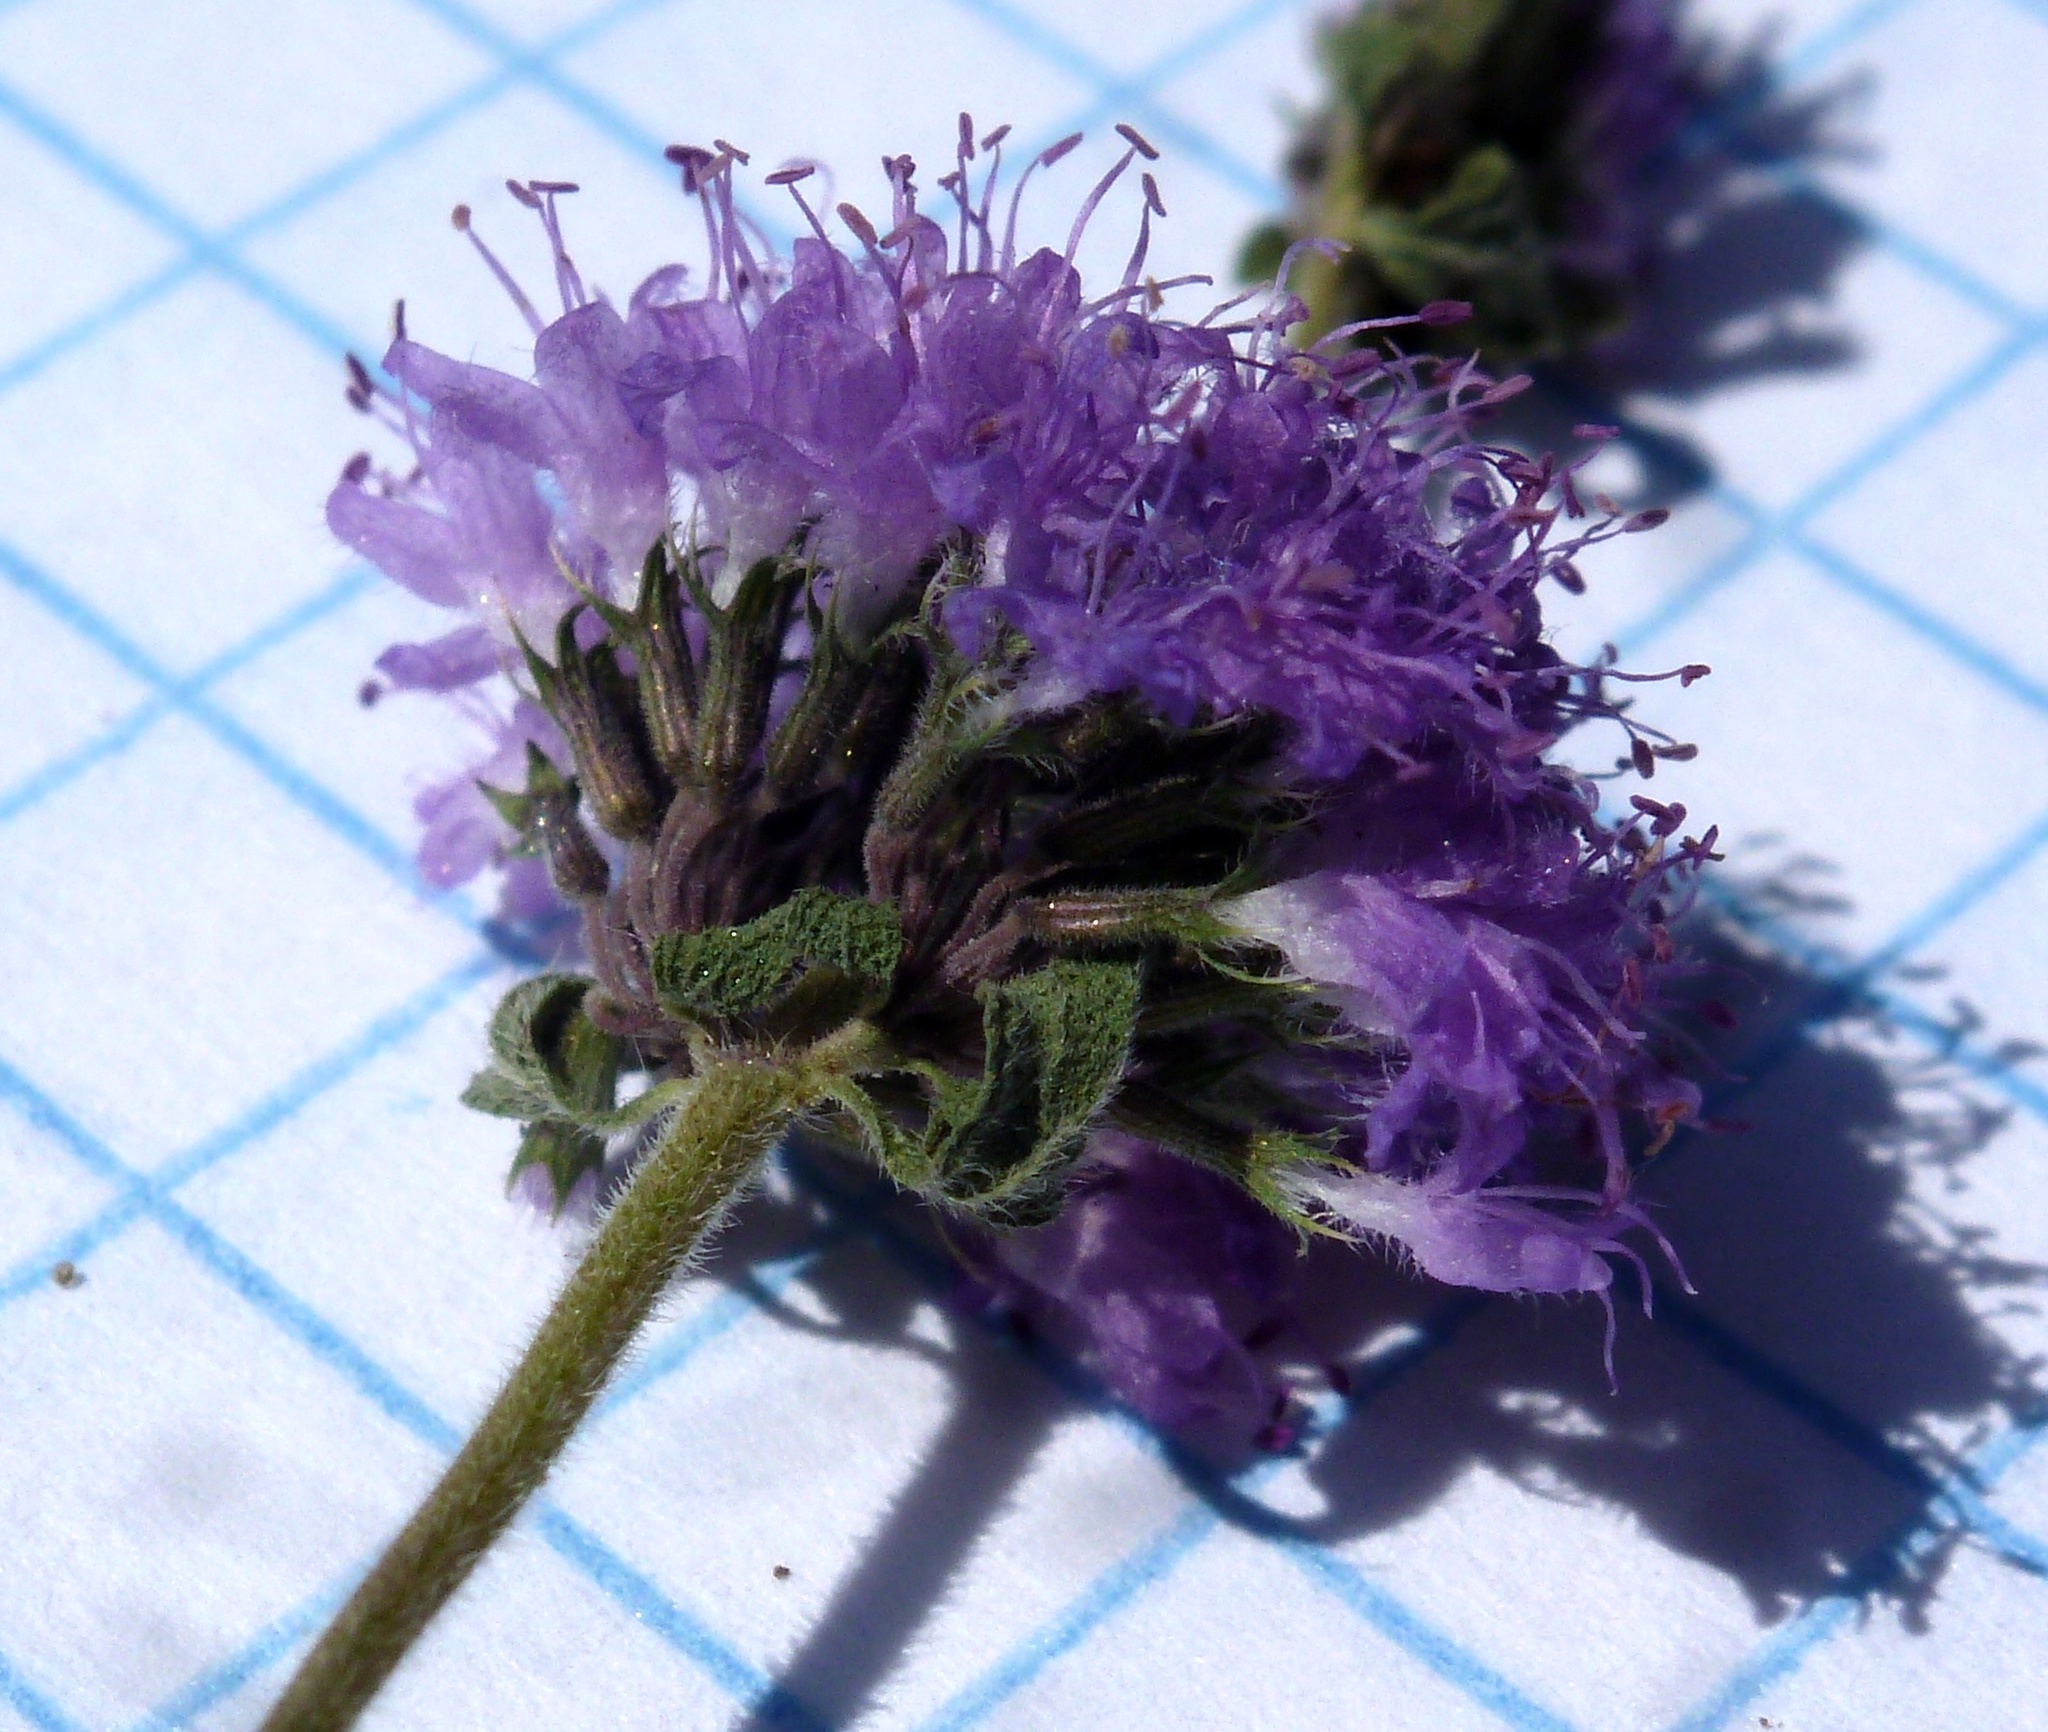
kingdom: Plantae
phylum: Tracheophyta
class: Magnoliopsida
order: Lamiales
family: Lamiaceae
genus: Mentha
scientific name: Mentha pulegium
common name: Pennyroyal
